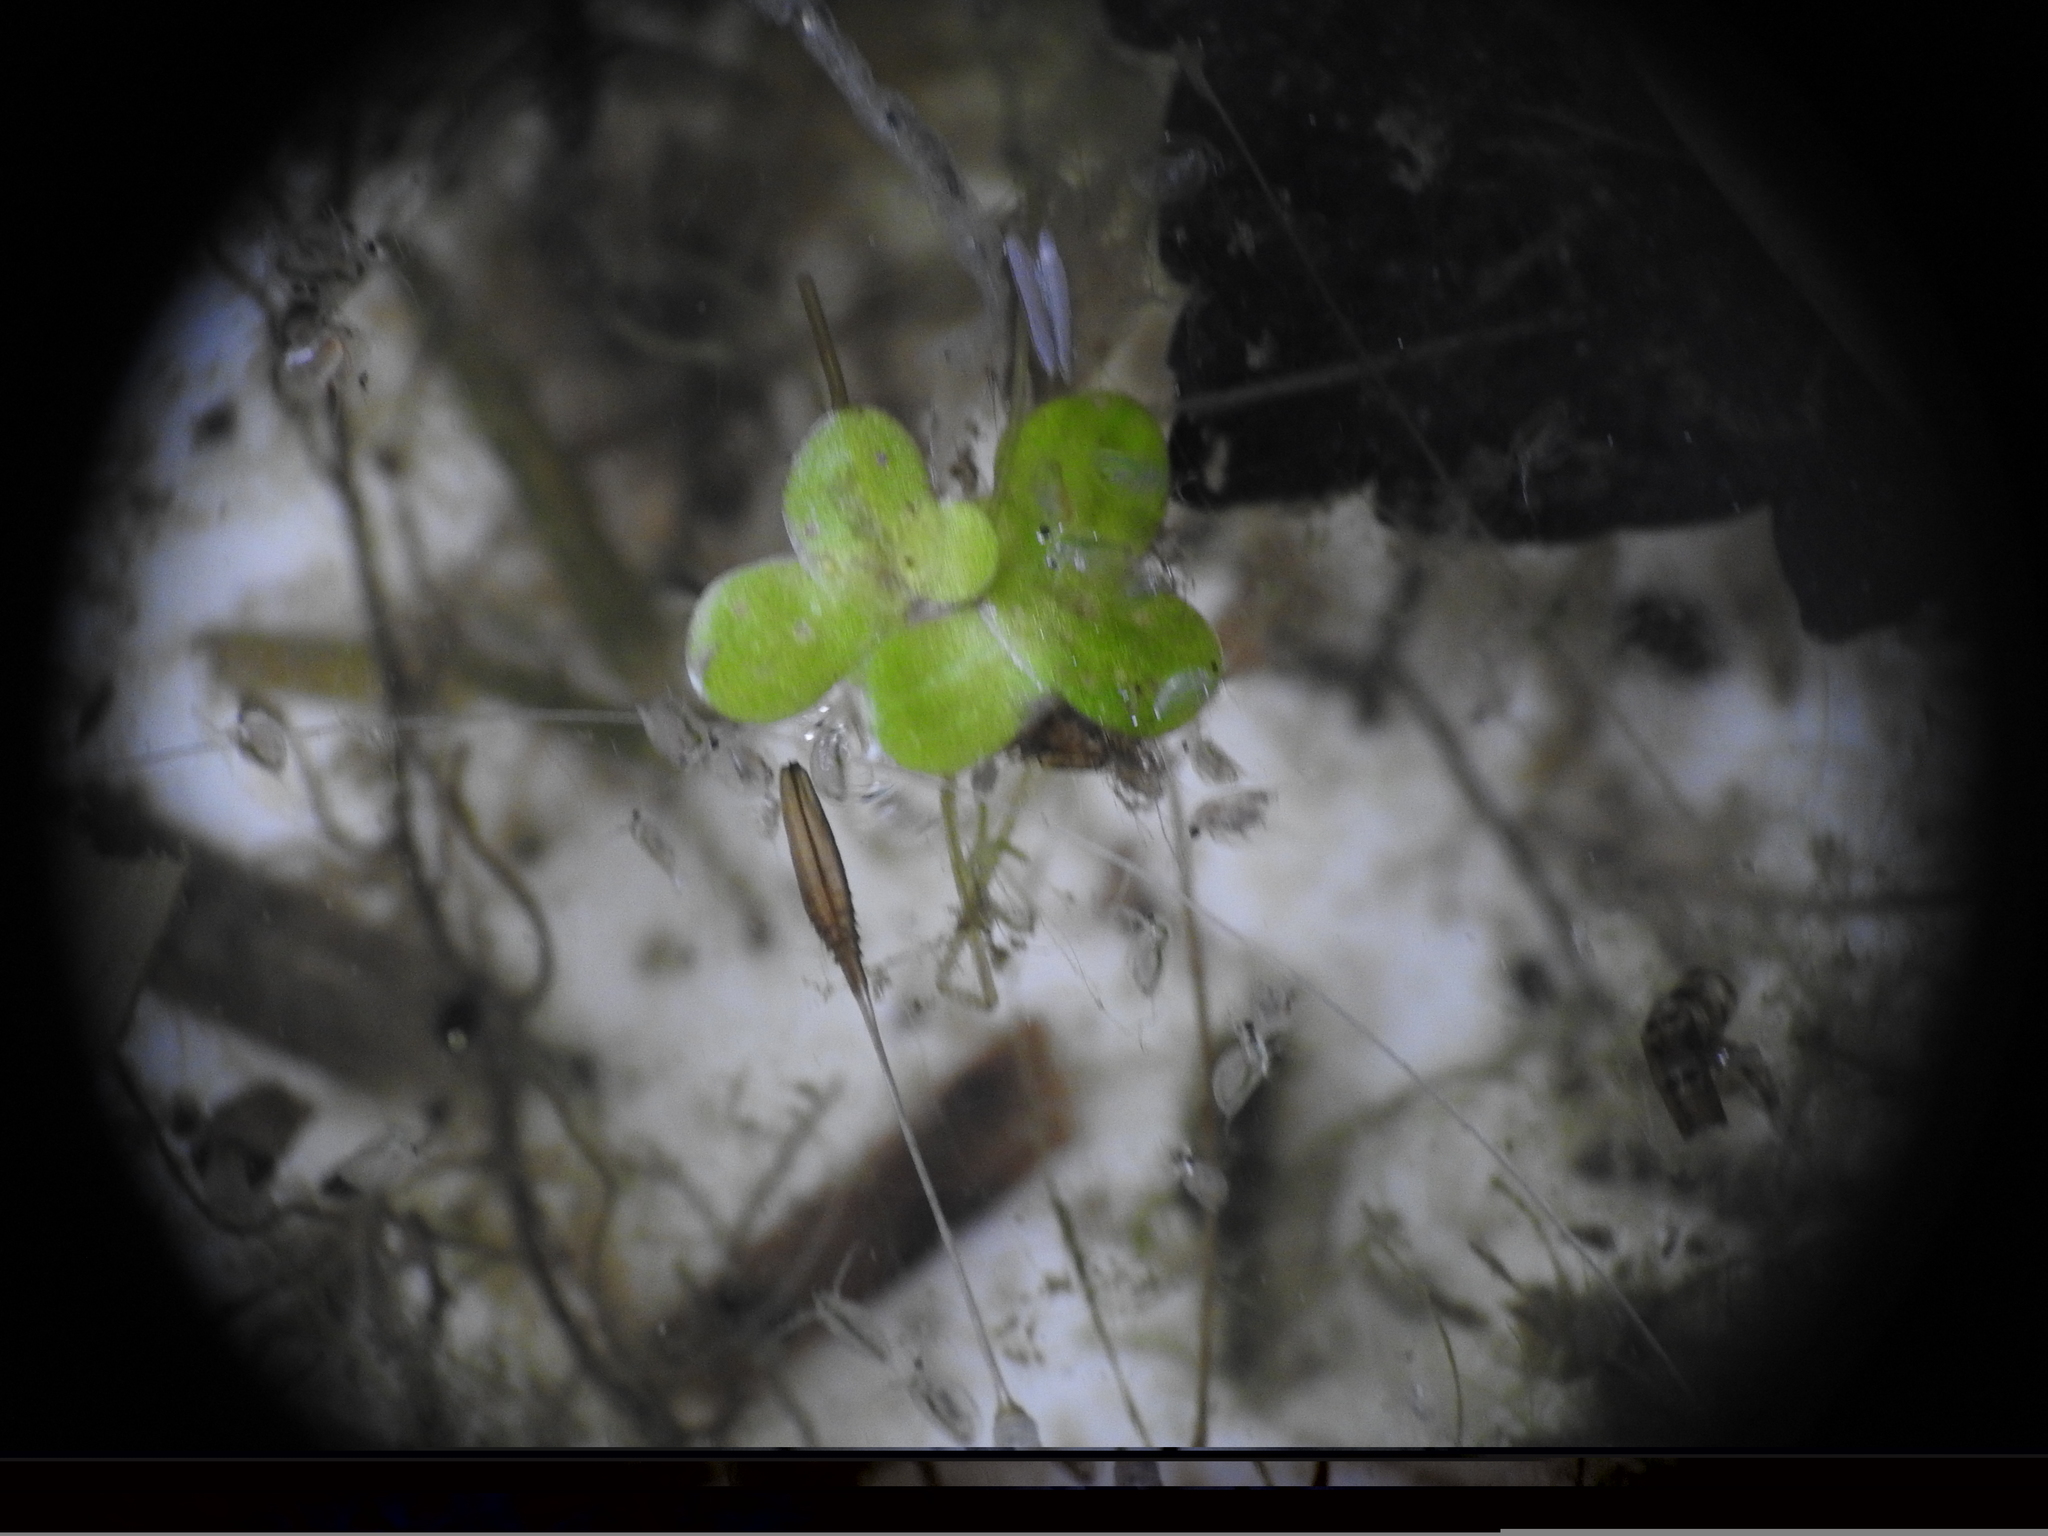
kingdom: Plantae
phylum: Tracheophyta
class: Liliopsida
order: Alismatales
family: Araceae
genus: Lemna
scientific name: Lemna minor
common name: Common duckweed
